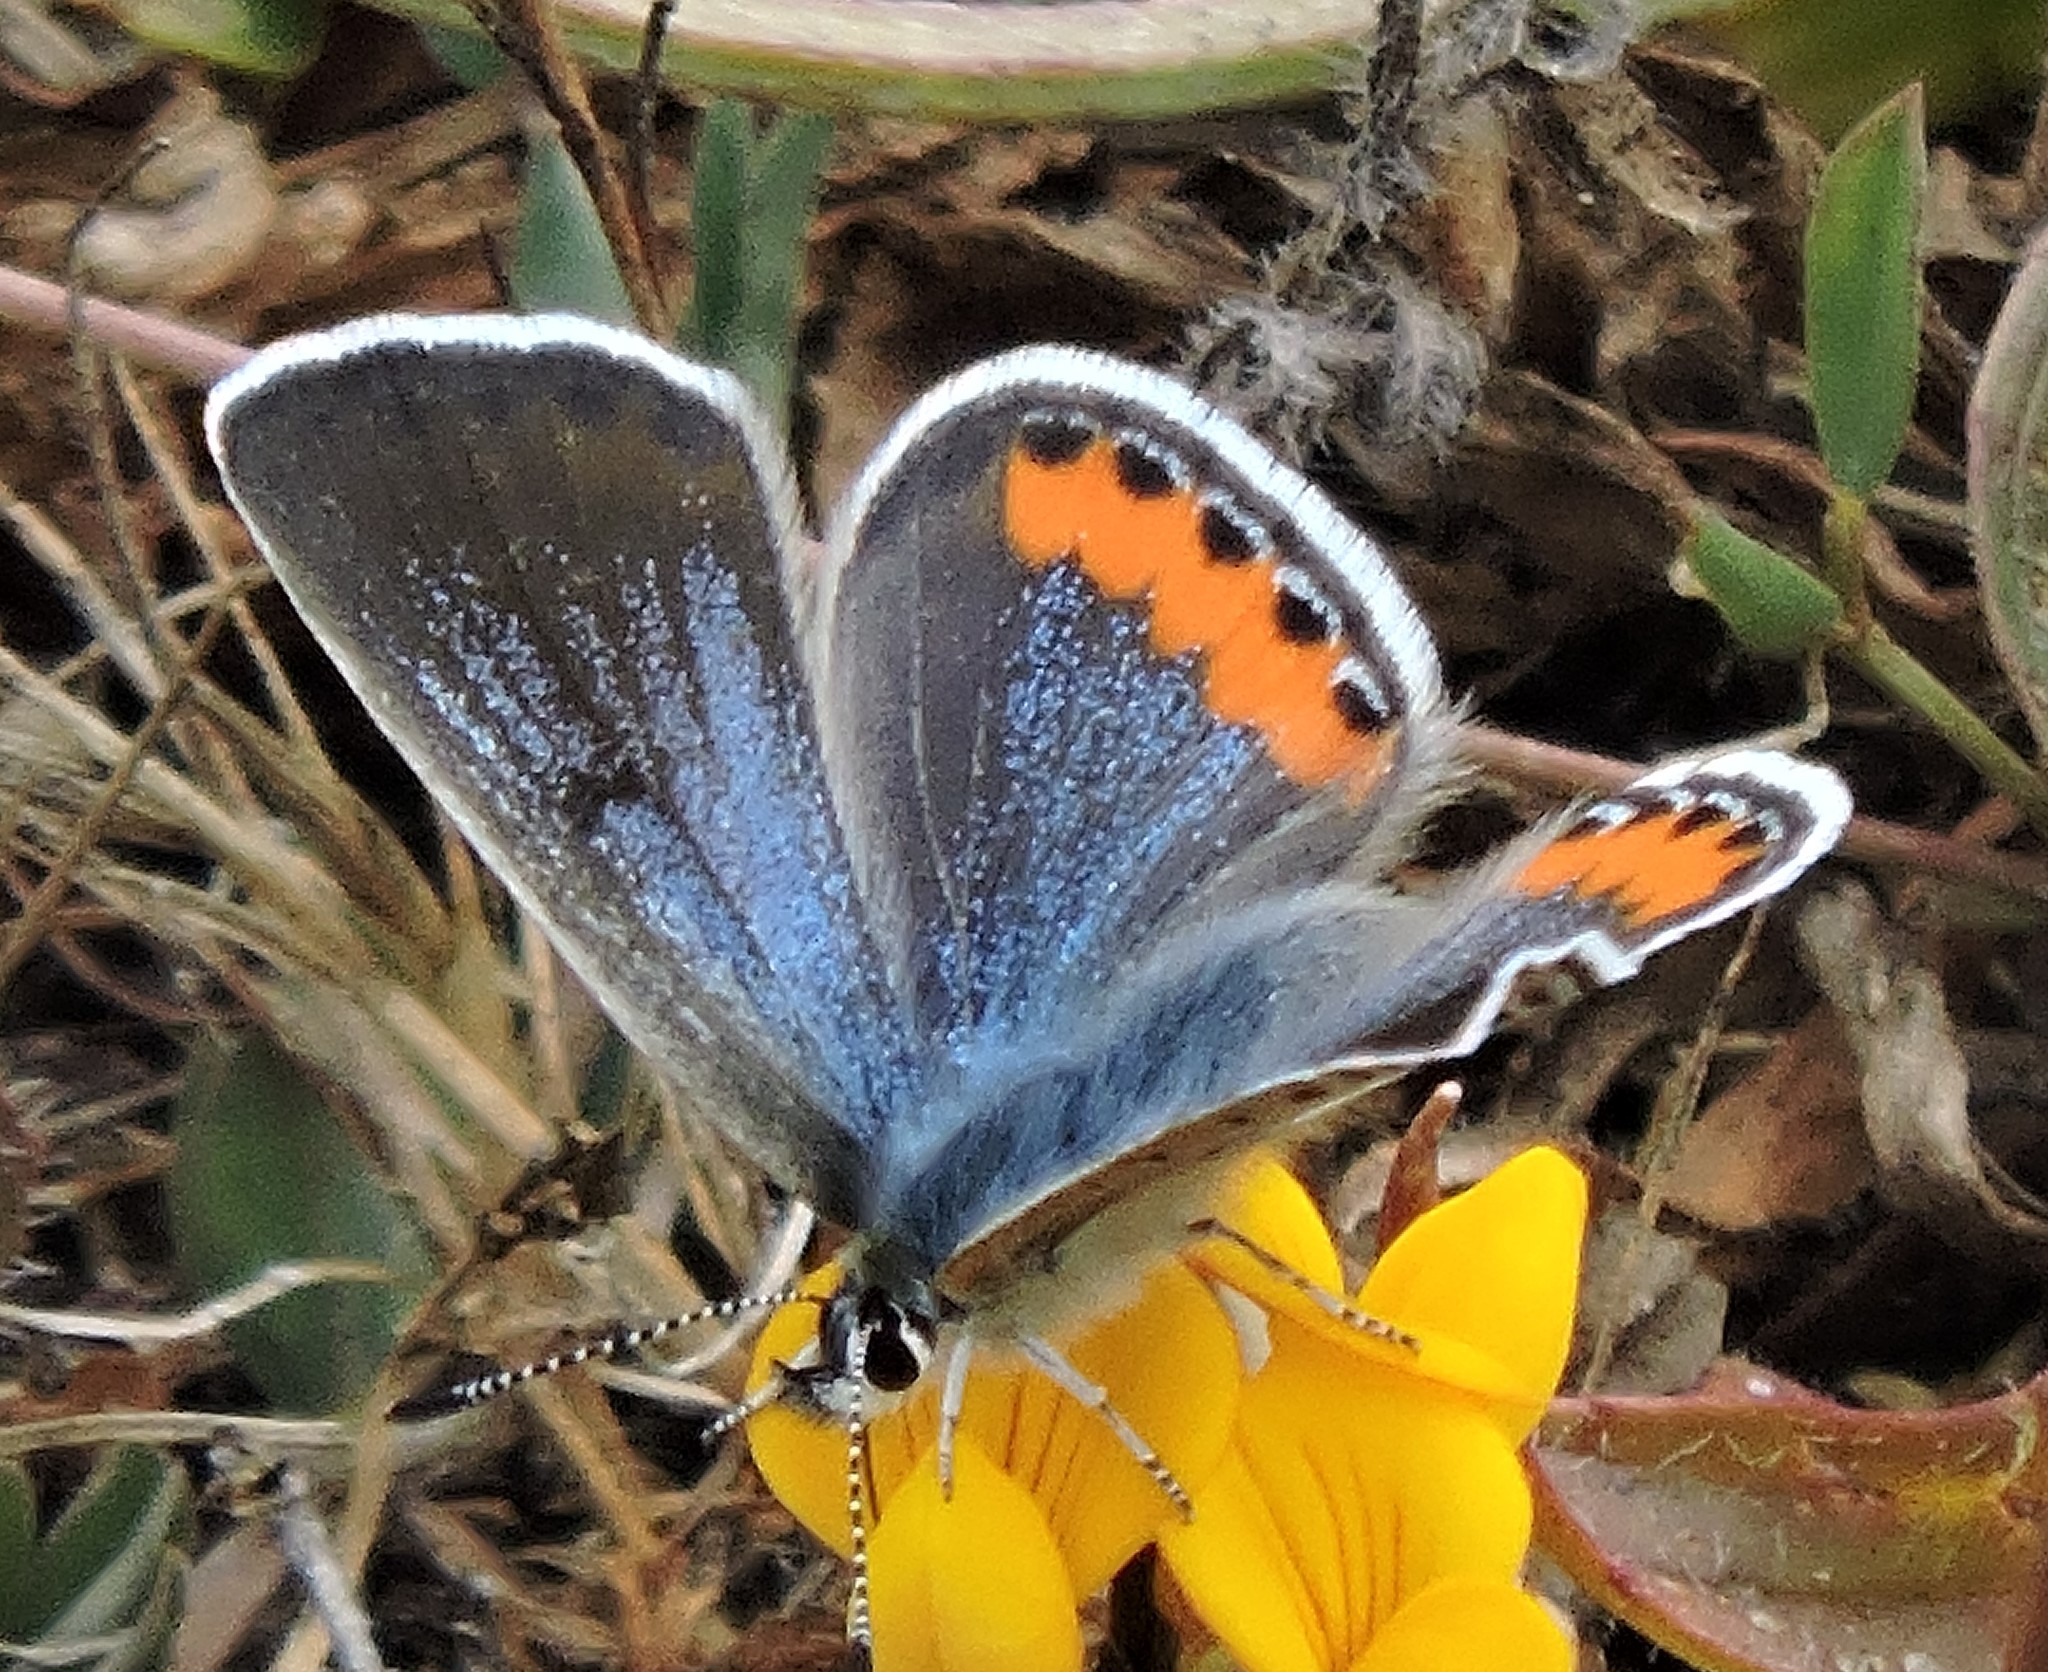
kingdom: Animalia
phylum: Arthropoda
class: Insecta
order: Lepidoptera
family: Lycaenidae
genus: Icaricia
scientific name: Icaricia acmon
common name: Acmon blue
